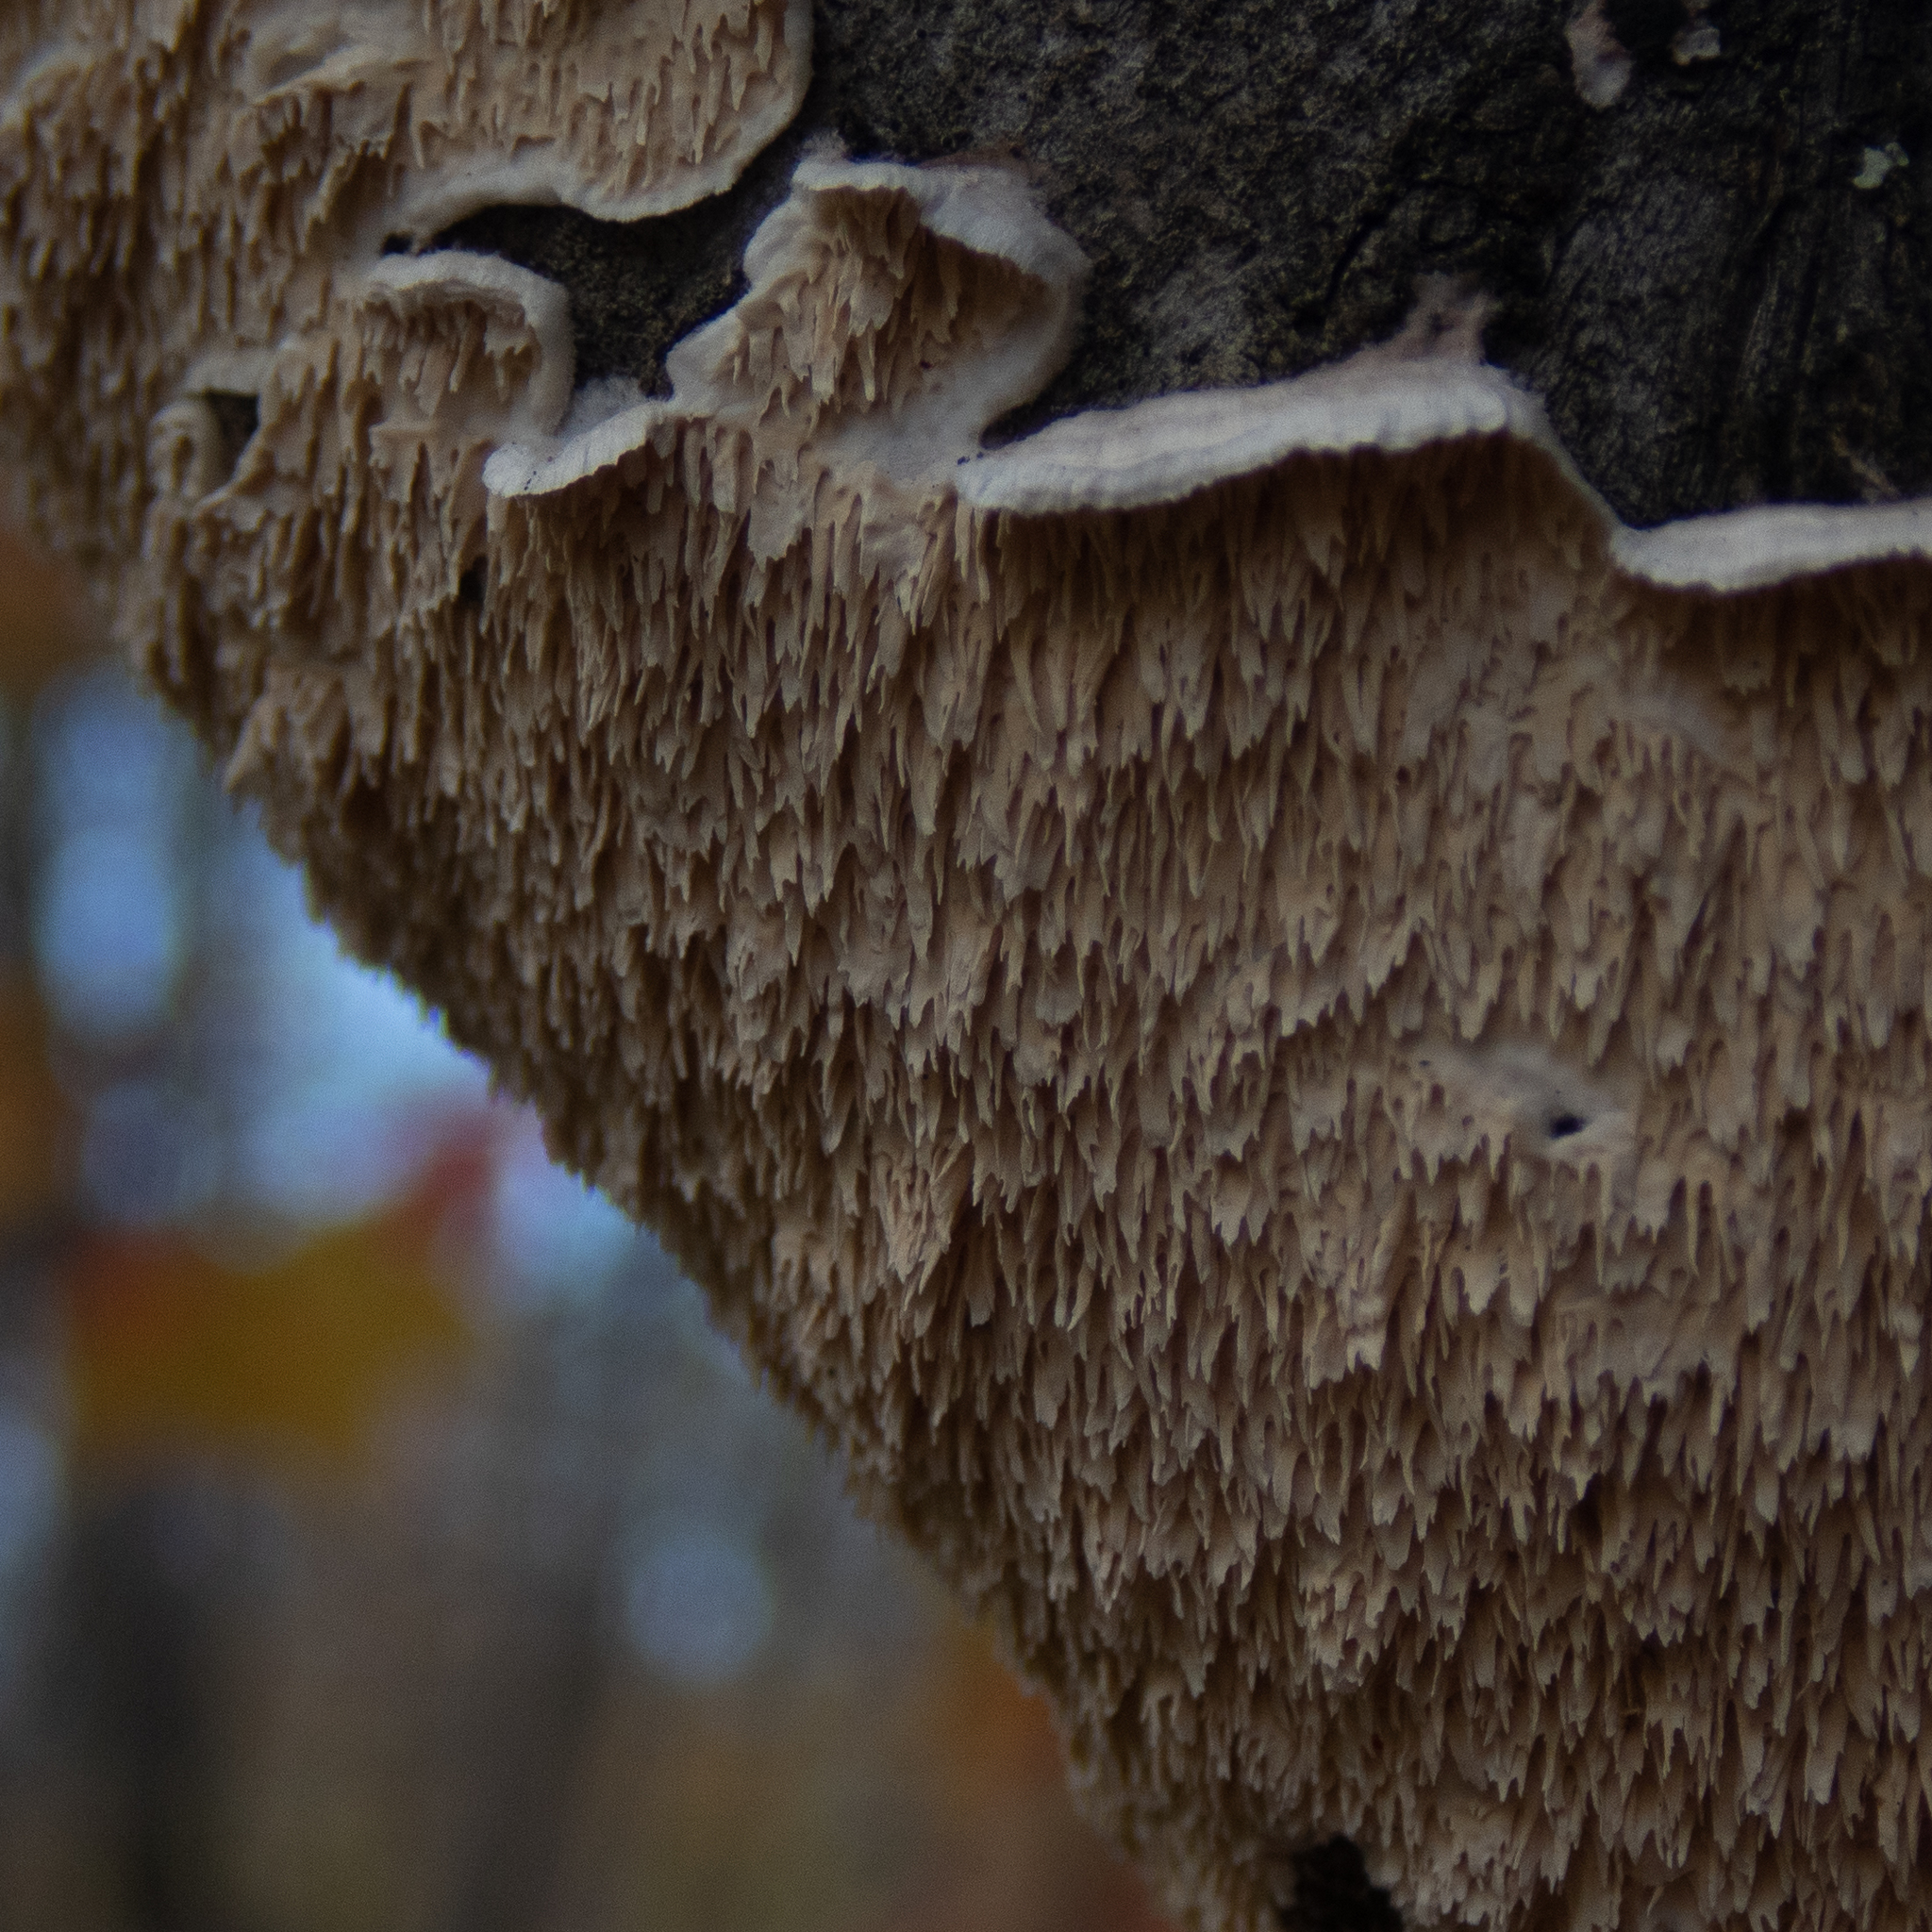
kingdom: Fungi
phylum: Basidiomycota
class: Agaricomycetes
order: Polyporales
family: Irpicaceae
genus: Irpex
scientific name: Irpex lacteus
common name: Milk-white toothed polypore
